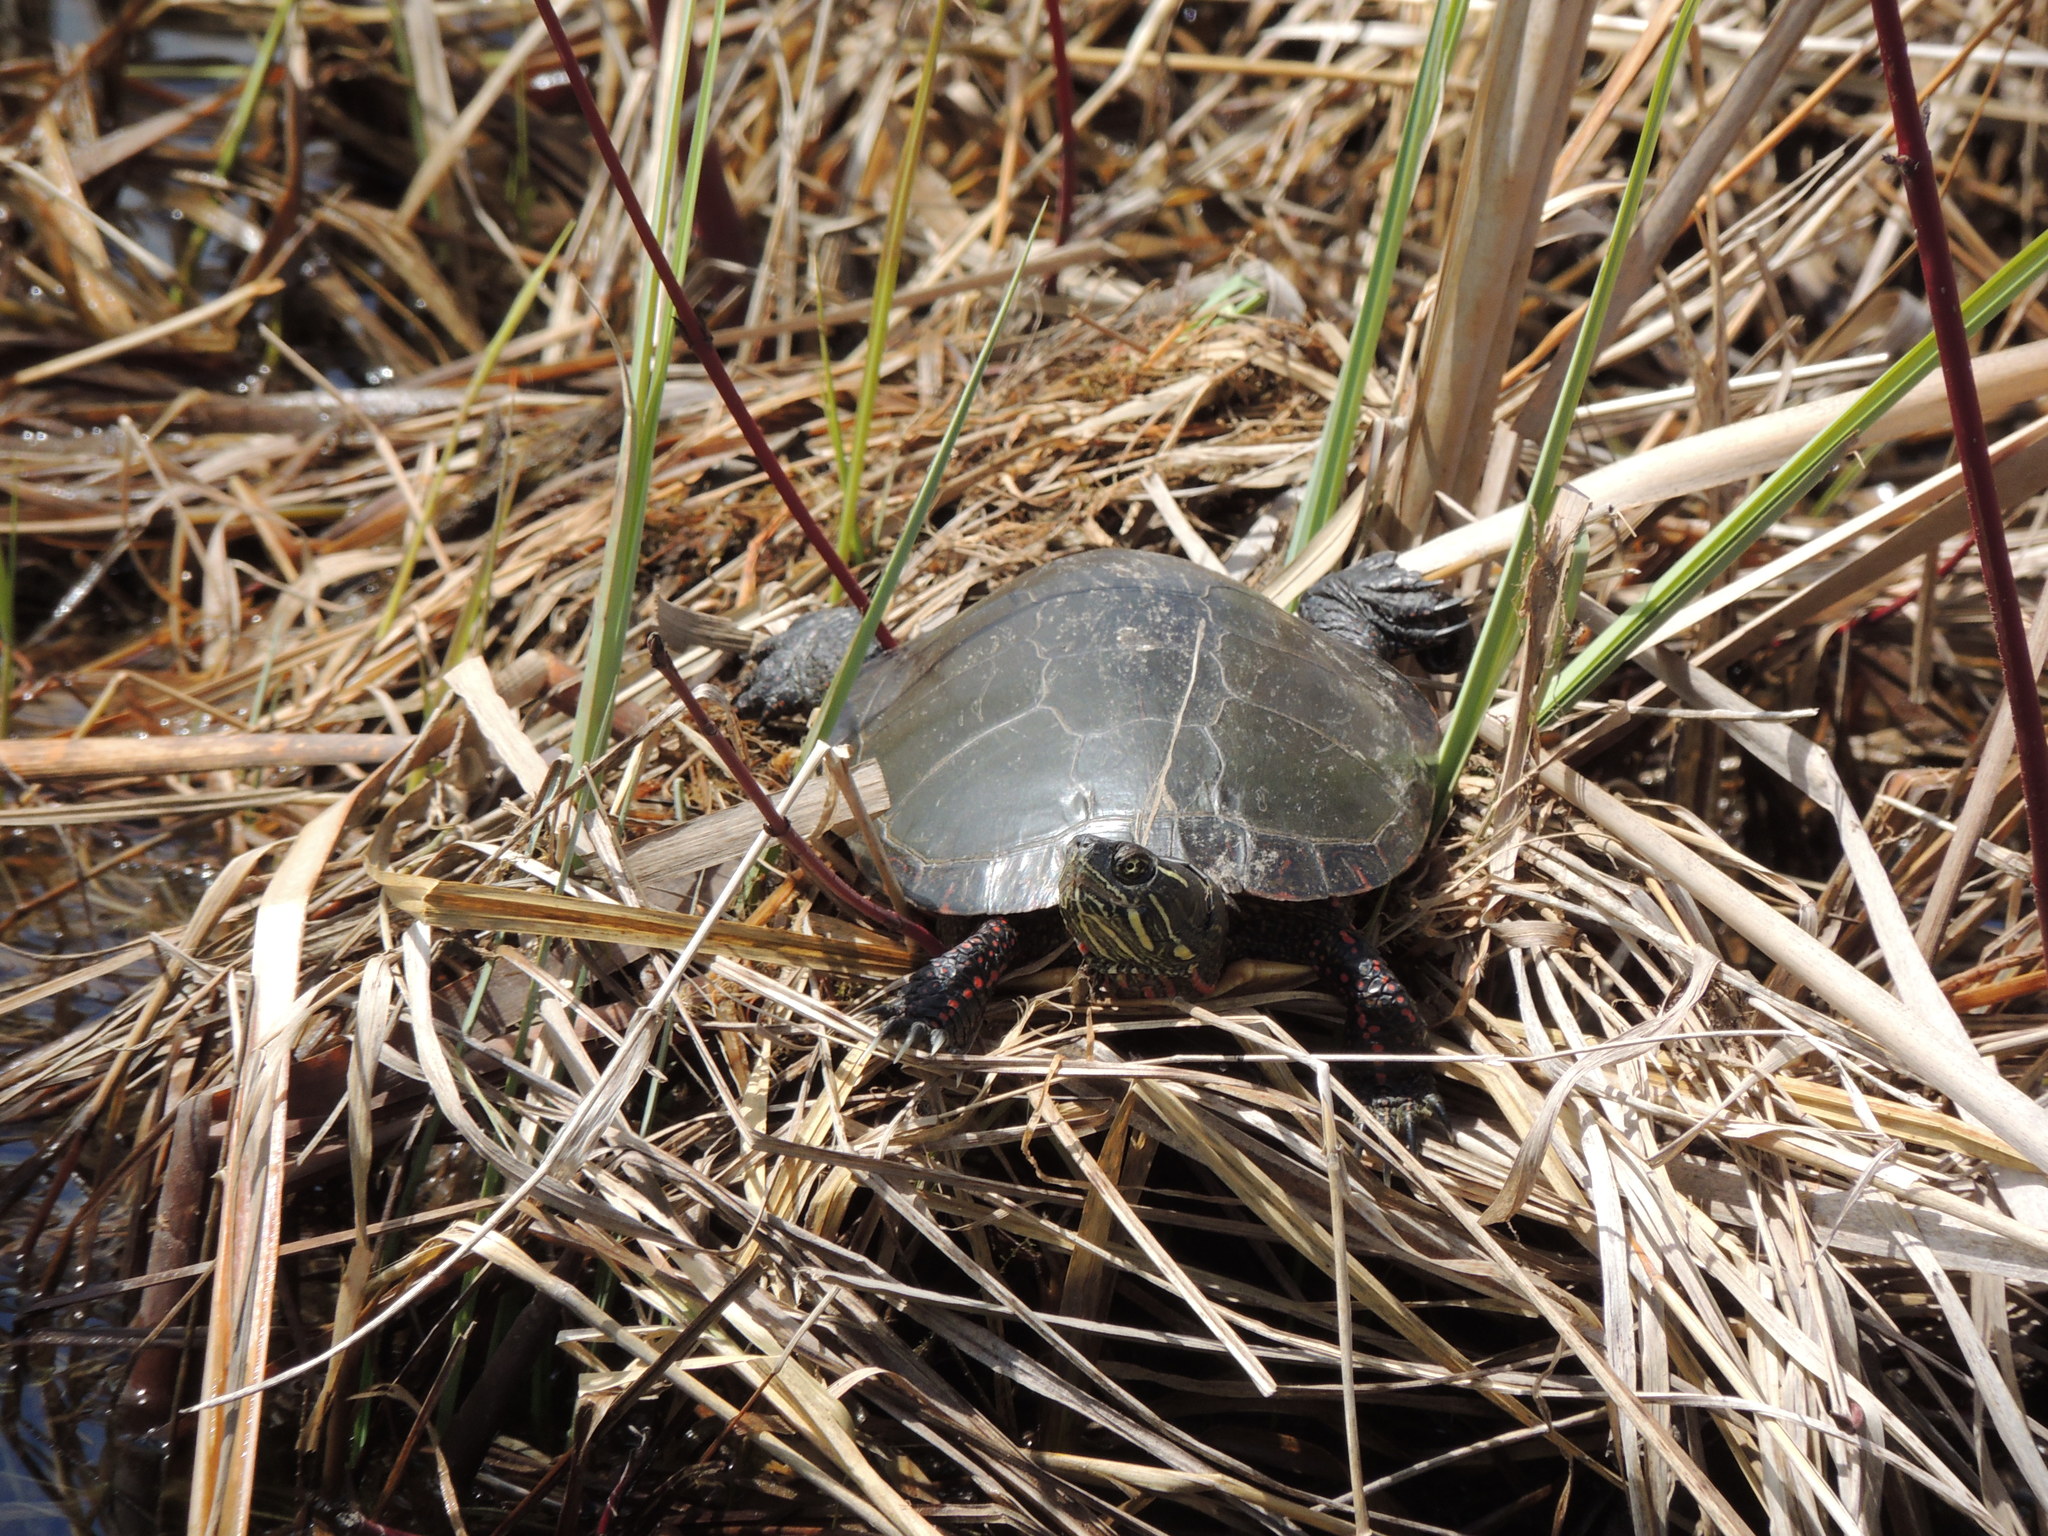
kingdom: Animalia
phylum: Chordata
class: Testudines
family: Emydidae
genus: Chrysemys
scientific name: Chrysemys picta
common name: Painted turtle
